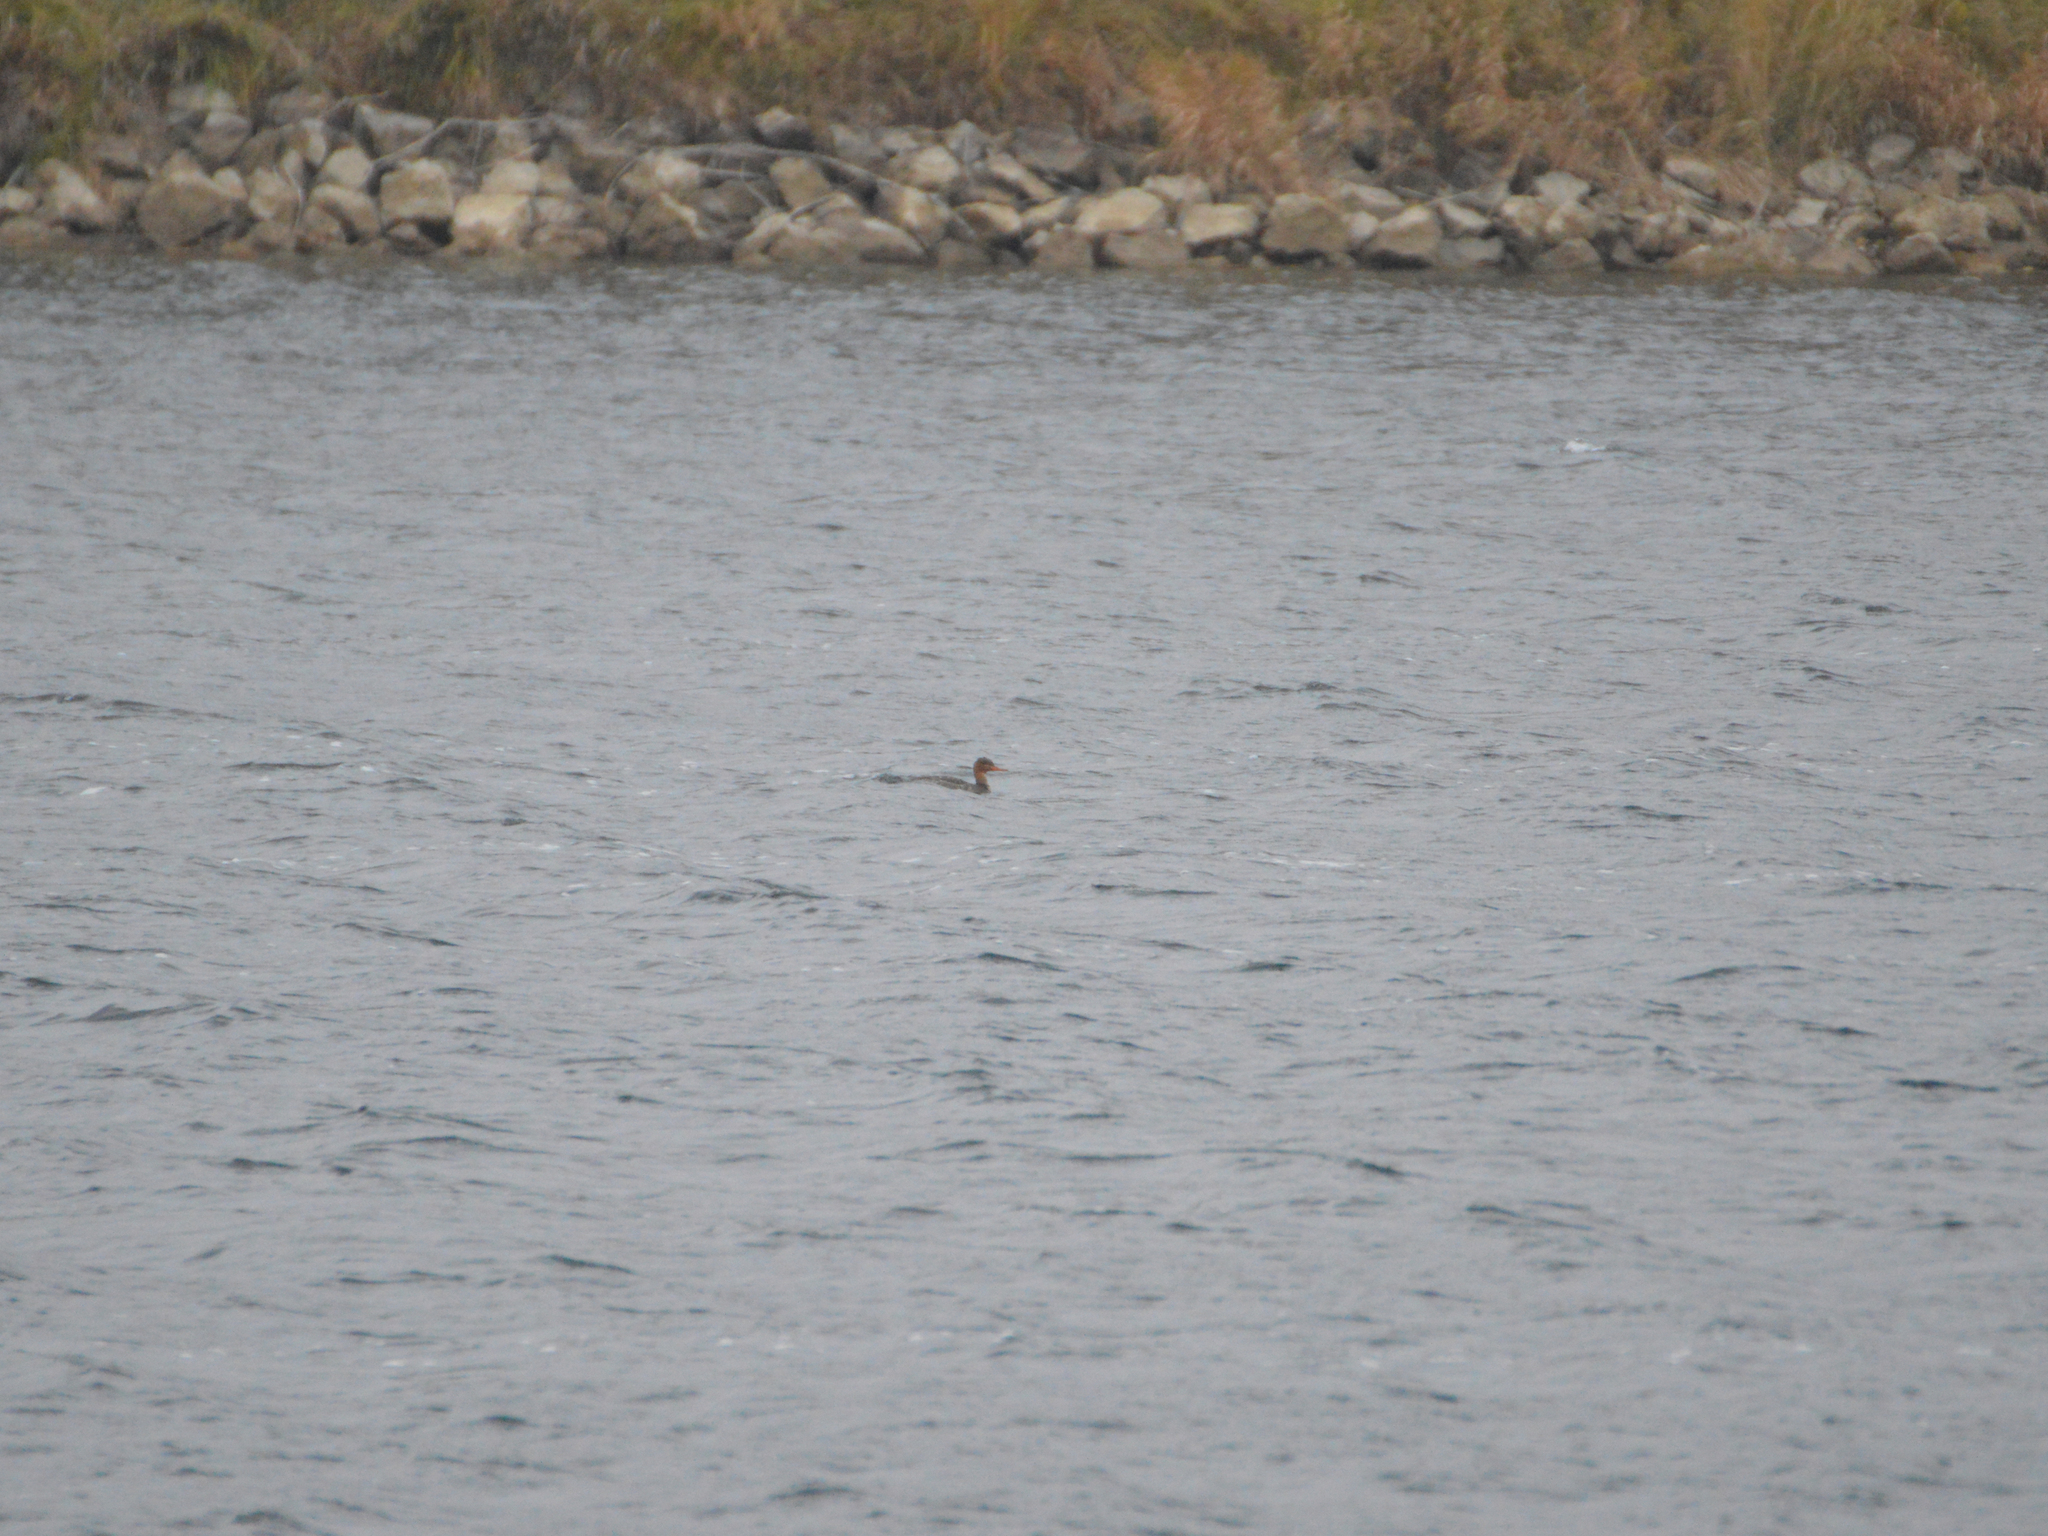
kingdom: Animalia
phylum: Chordata
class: Aves
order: Anseriformes
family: Anatidae
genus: Mergus
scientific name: Mergus serrator
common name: Red-breasted merganser
